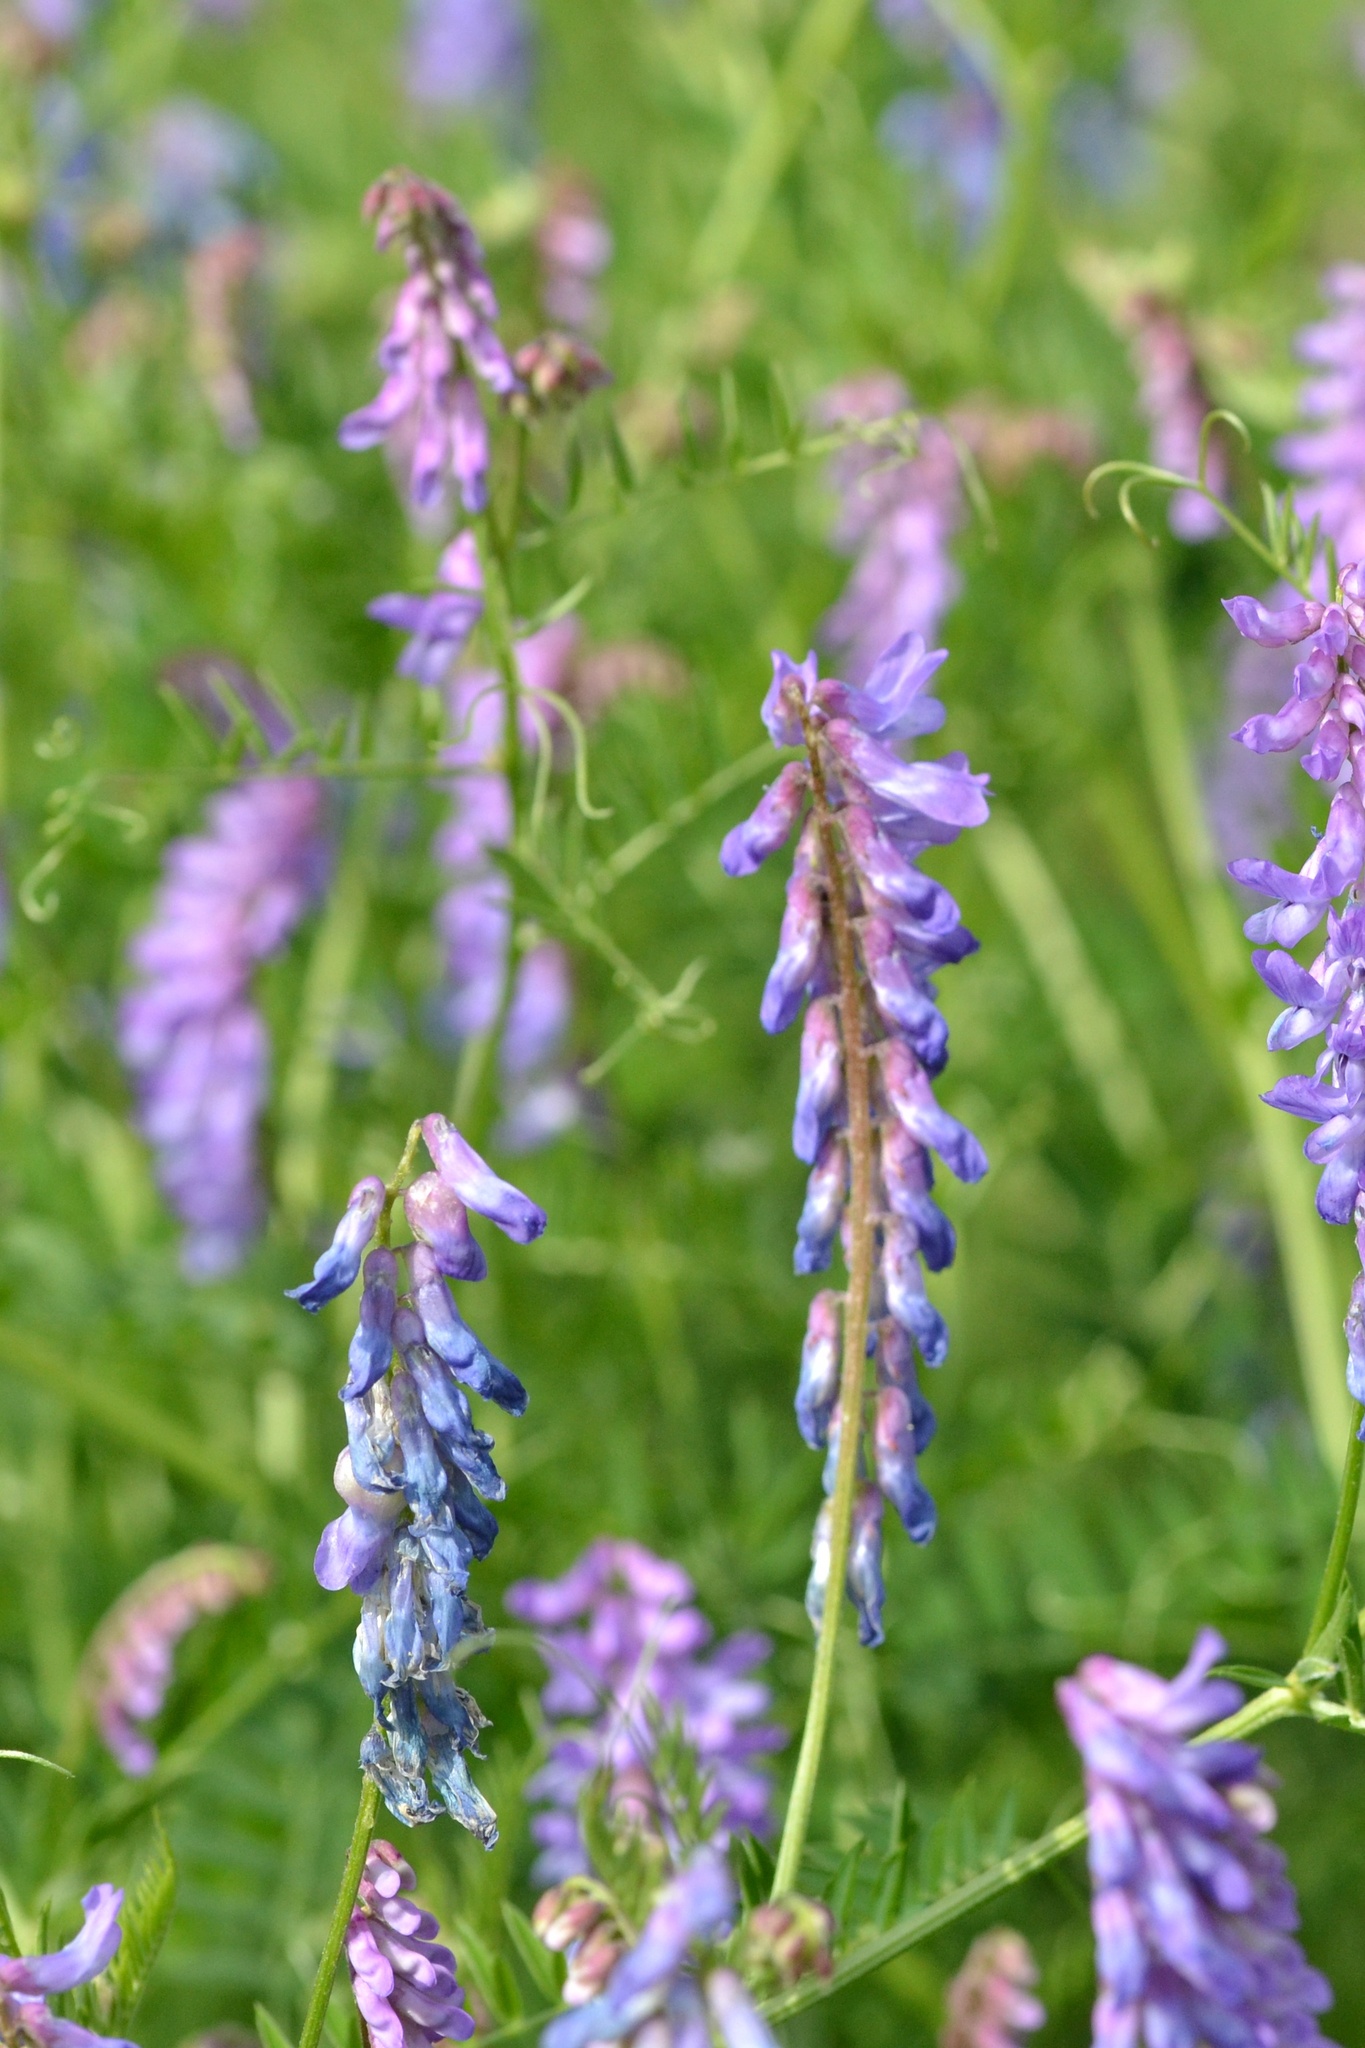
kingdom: Plantae
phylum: Tracheophyta
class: Magnoliopsida
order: Fabales
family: Fabaceae
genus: Vicia
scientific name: Vicia cracca
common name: Bird vetch
